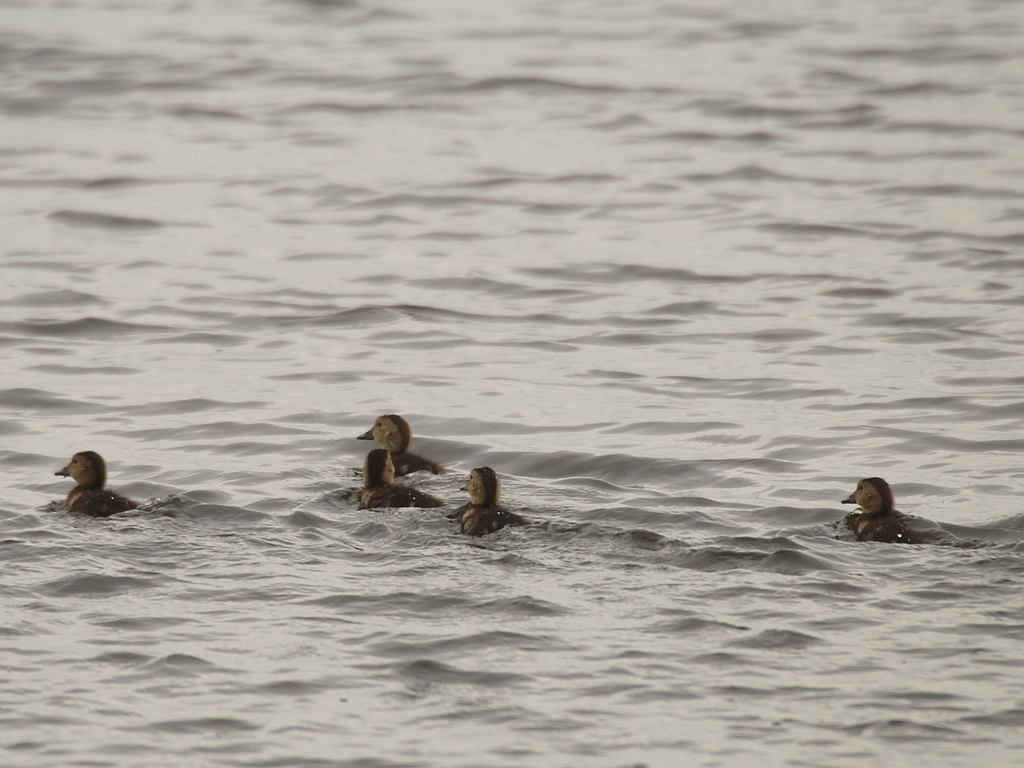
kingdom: Animalia
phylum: Chordata
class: Aves
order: Anseriformes
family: Anatidae
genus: Aythya
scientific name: Aythya ferina
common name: Common pochard
